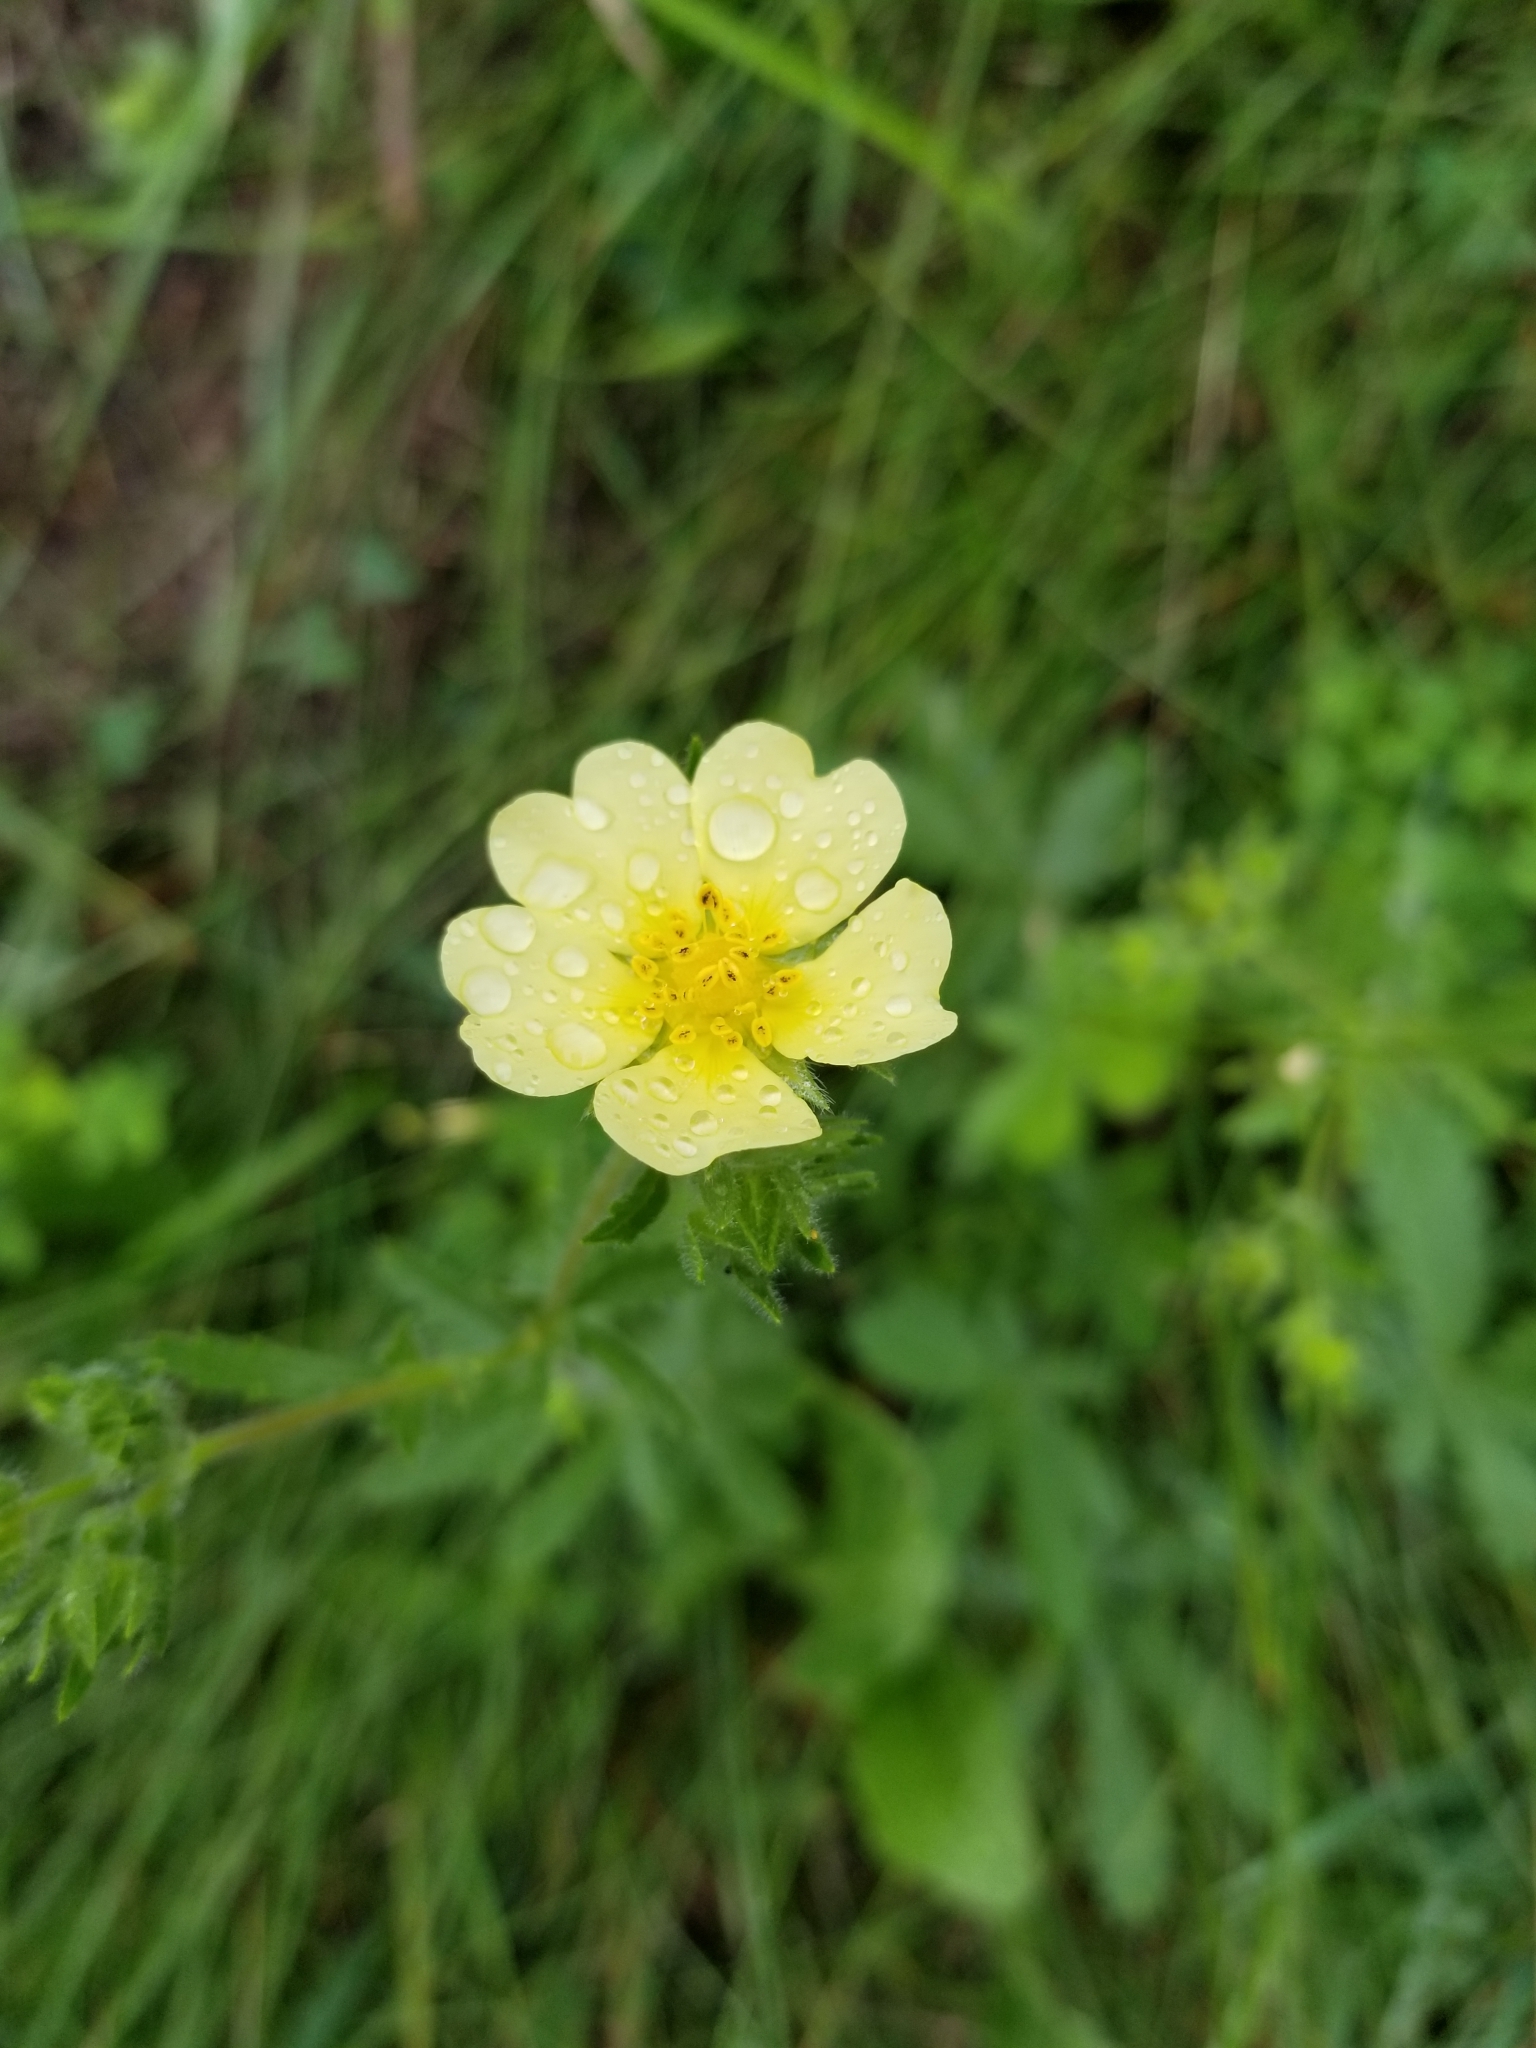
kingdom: Plantae
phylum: Tracheophyta
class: Magnoliopsida
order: Rosales
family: Rosaceae
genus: Potentilla
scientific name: Potentilla recta
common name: Sulphur cinquefoil
